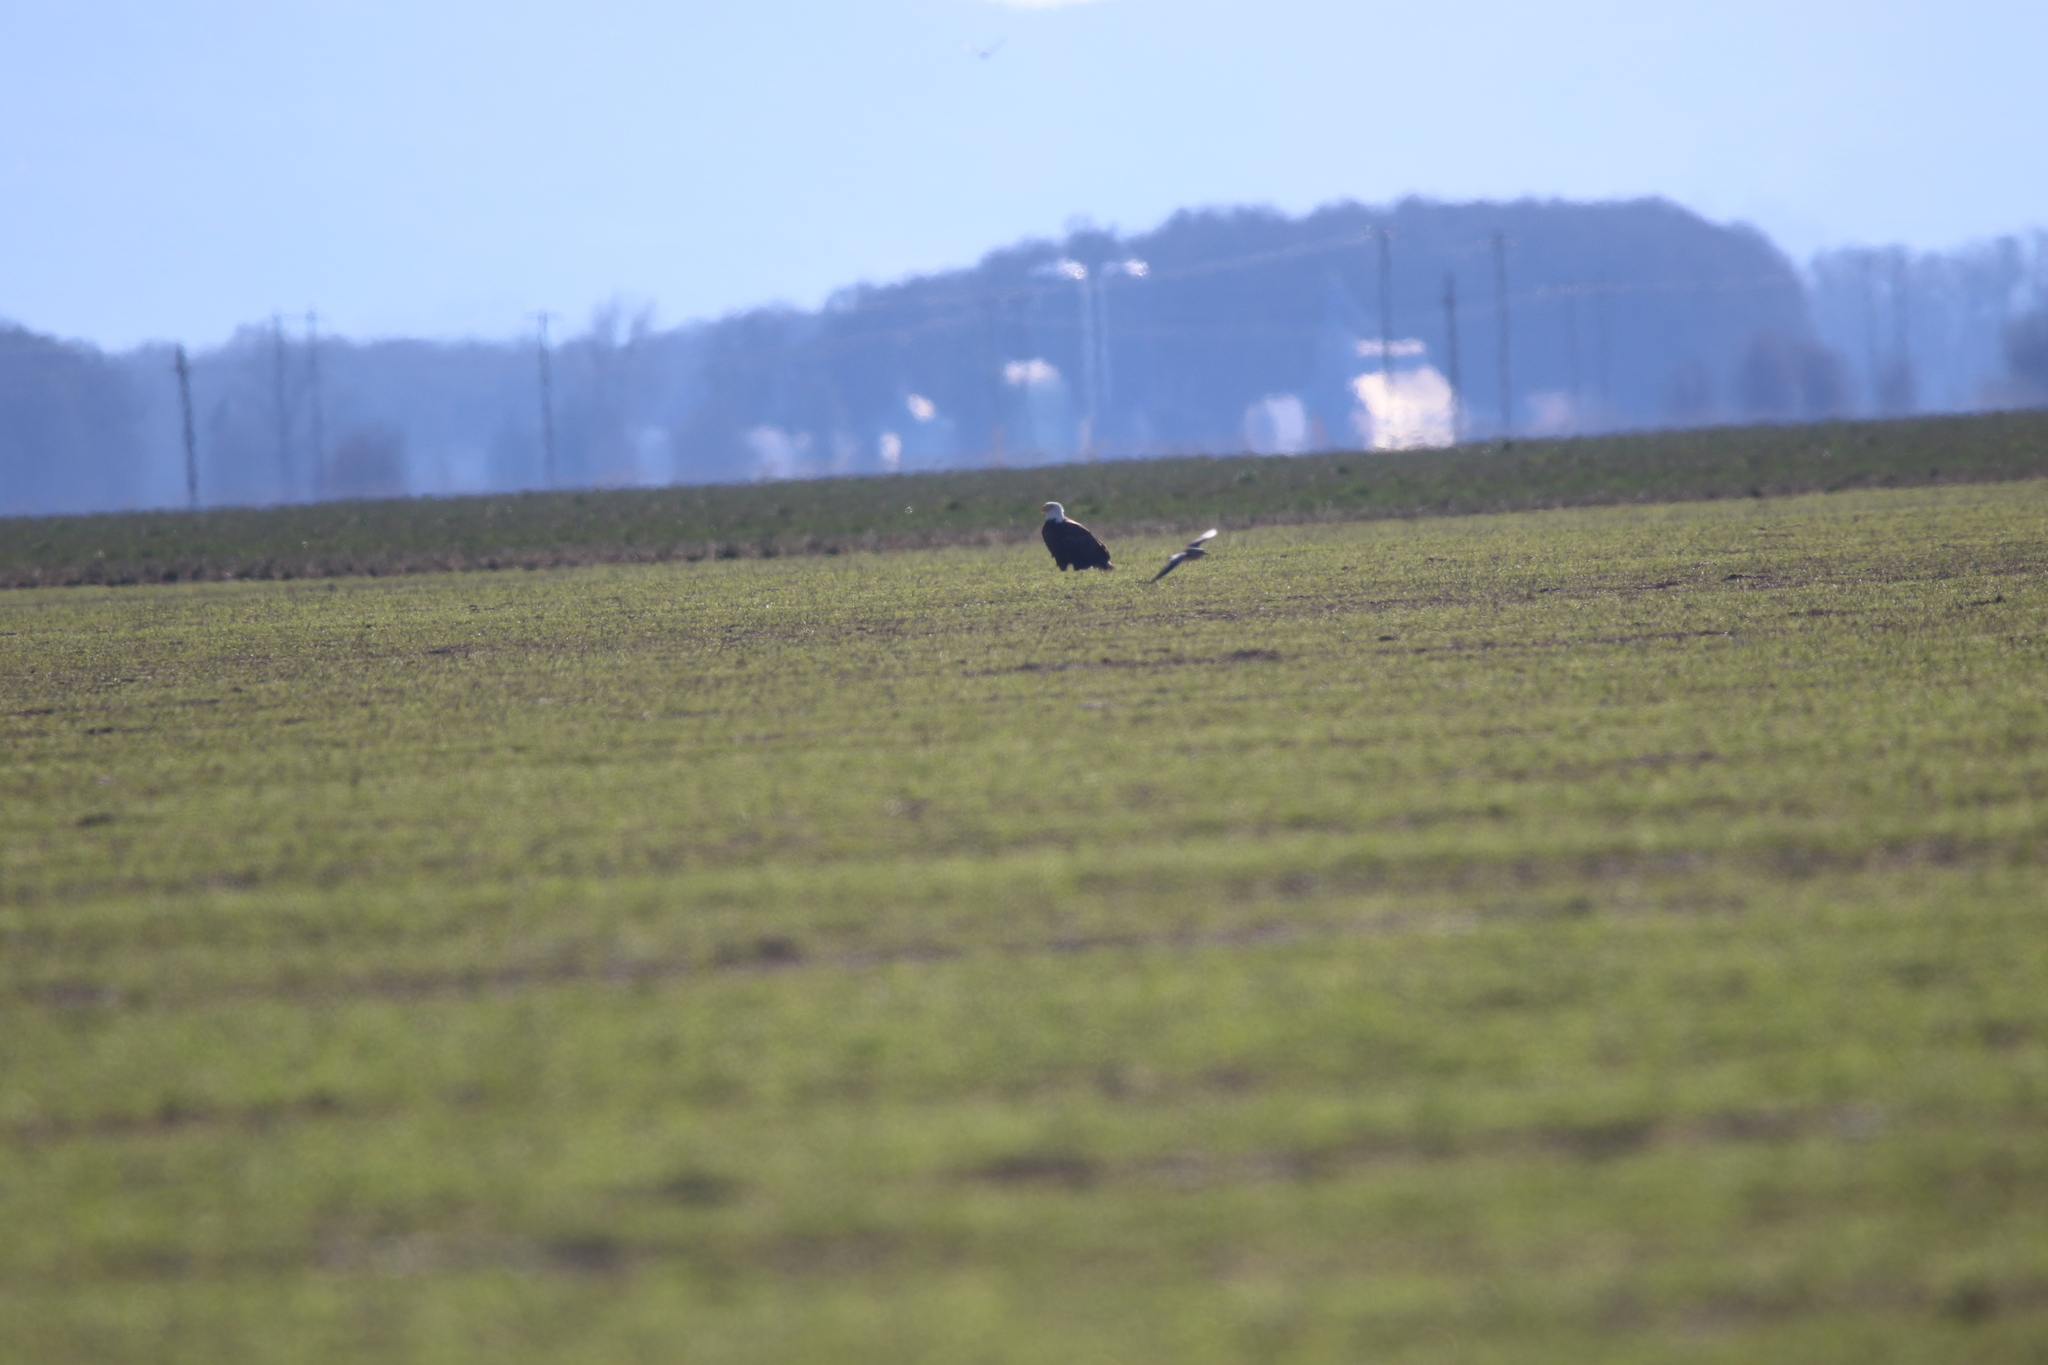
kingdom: Animalia
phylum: Chordata
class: Aves
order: Accipitriformes
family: Accipitridae
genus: Haliaeetus
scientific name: Haliaeetus leucocephalus
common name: Bald eagle
